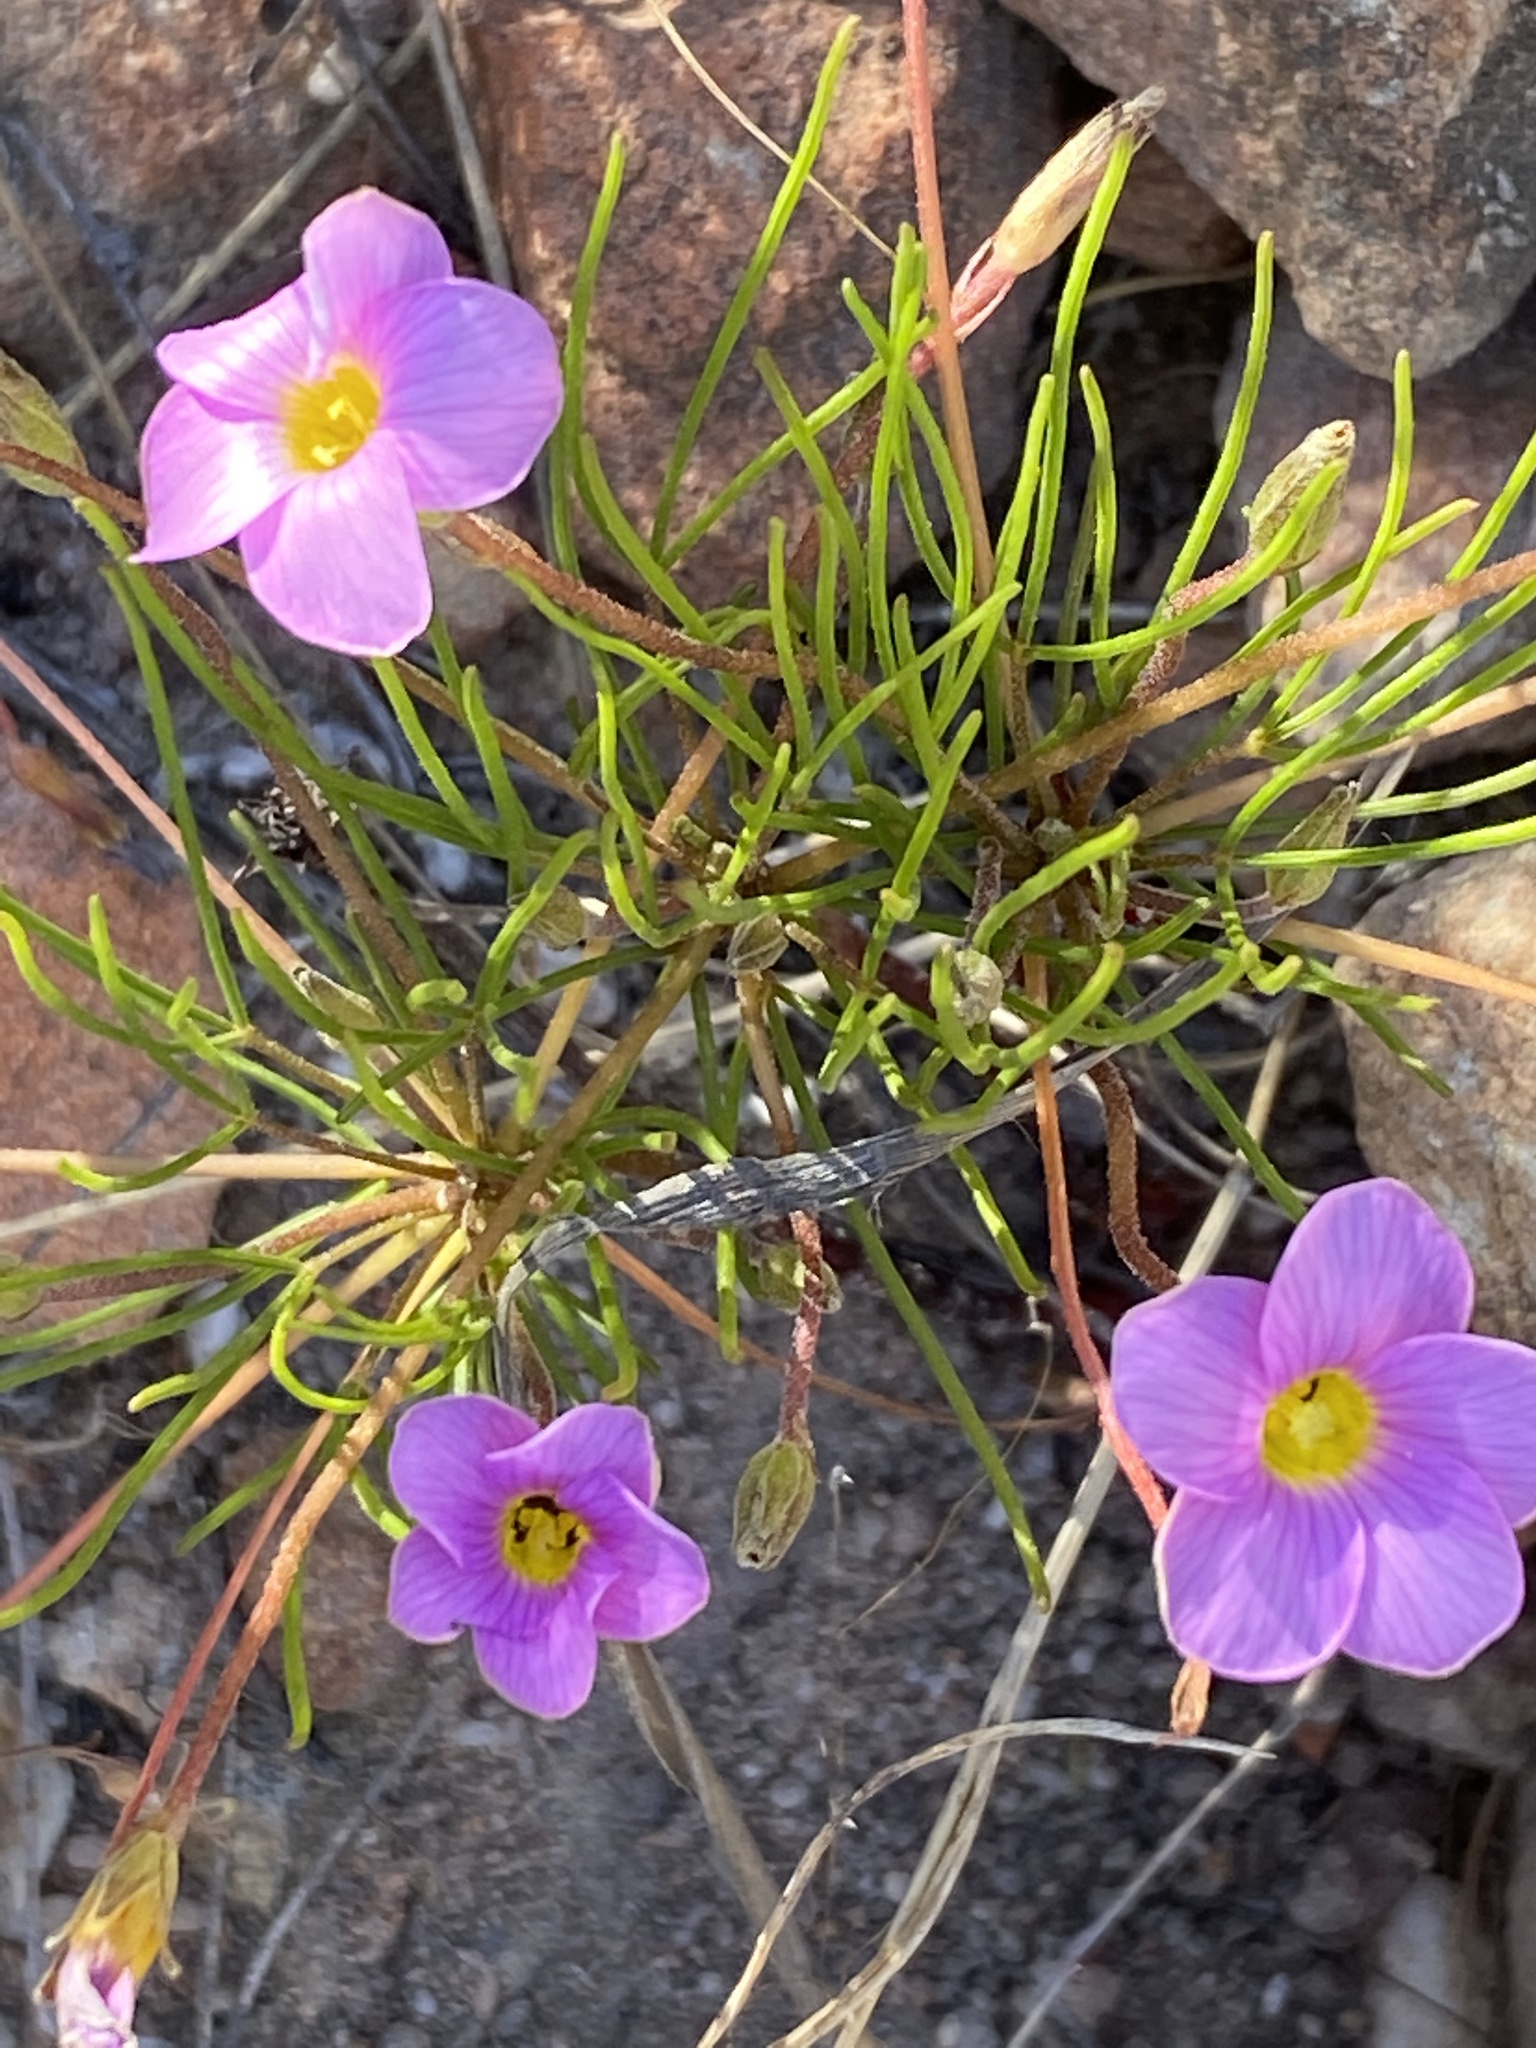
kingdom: Plantae
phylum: Tracheophyta
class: Magnoliopsida
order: Oxalidales
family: Oxalidaceae
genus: Oxalis
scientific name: Oxalis polyphylla
